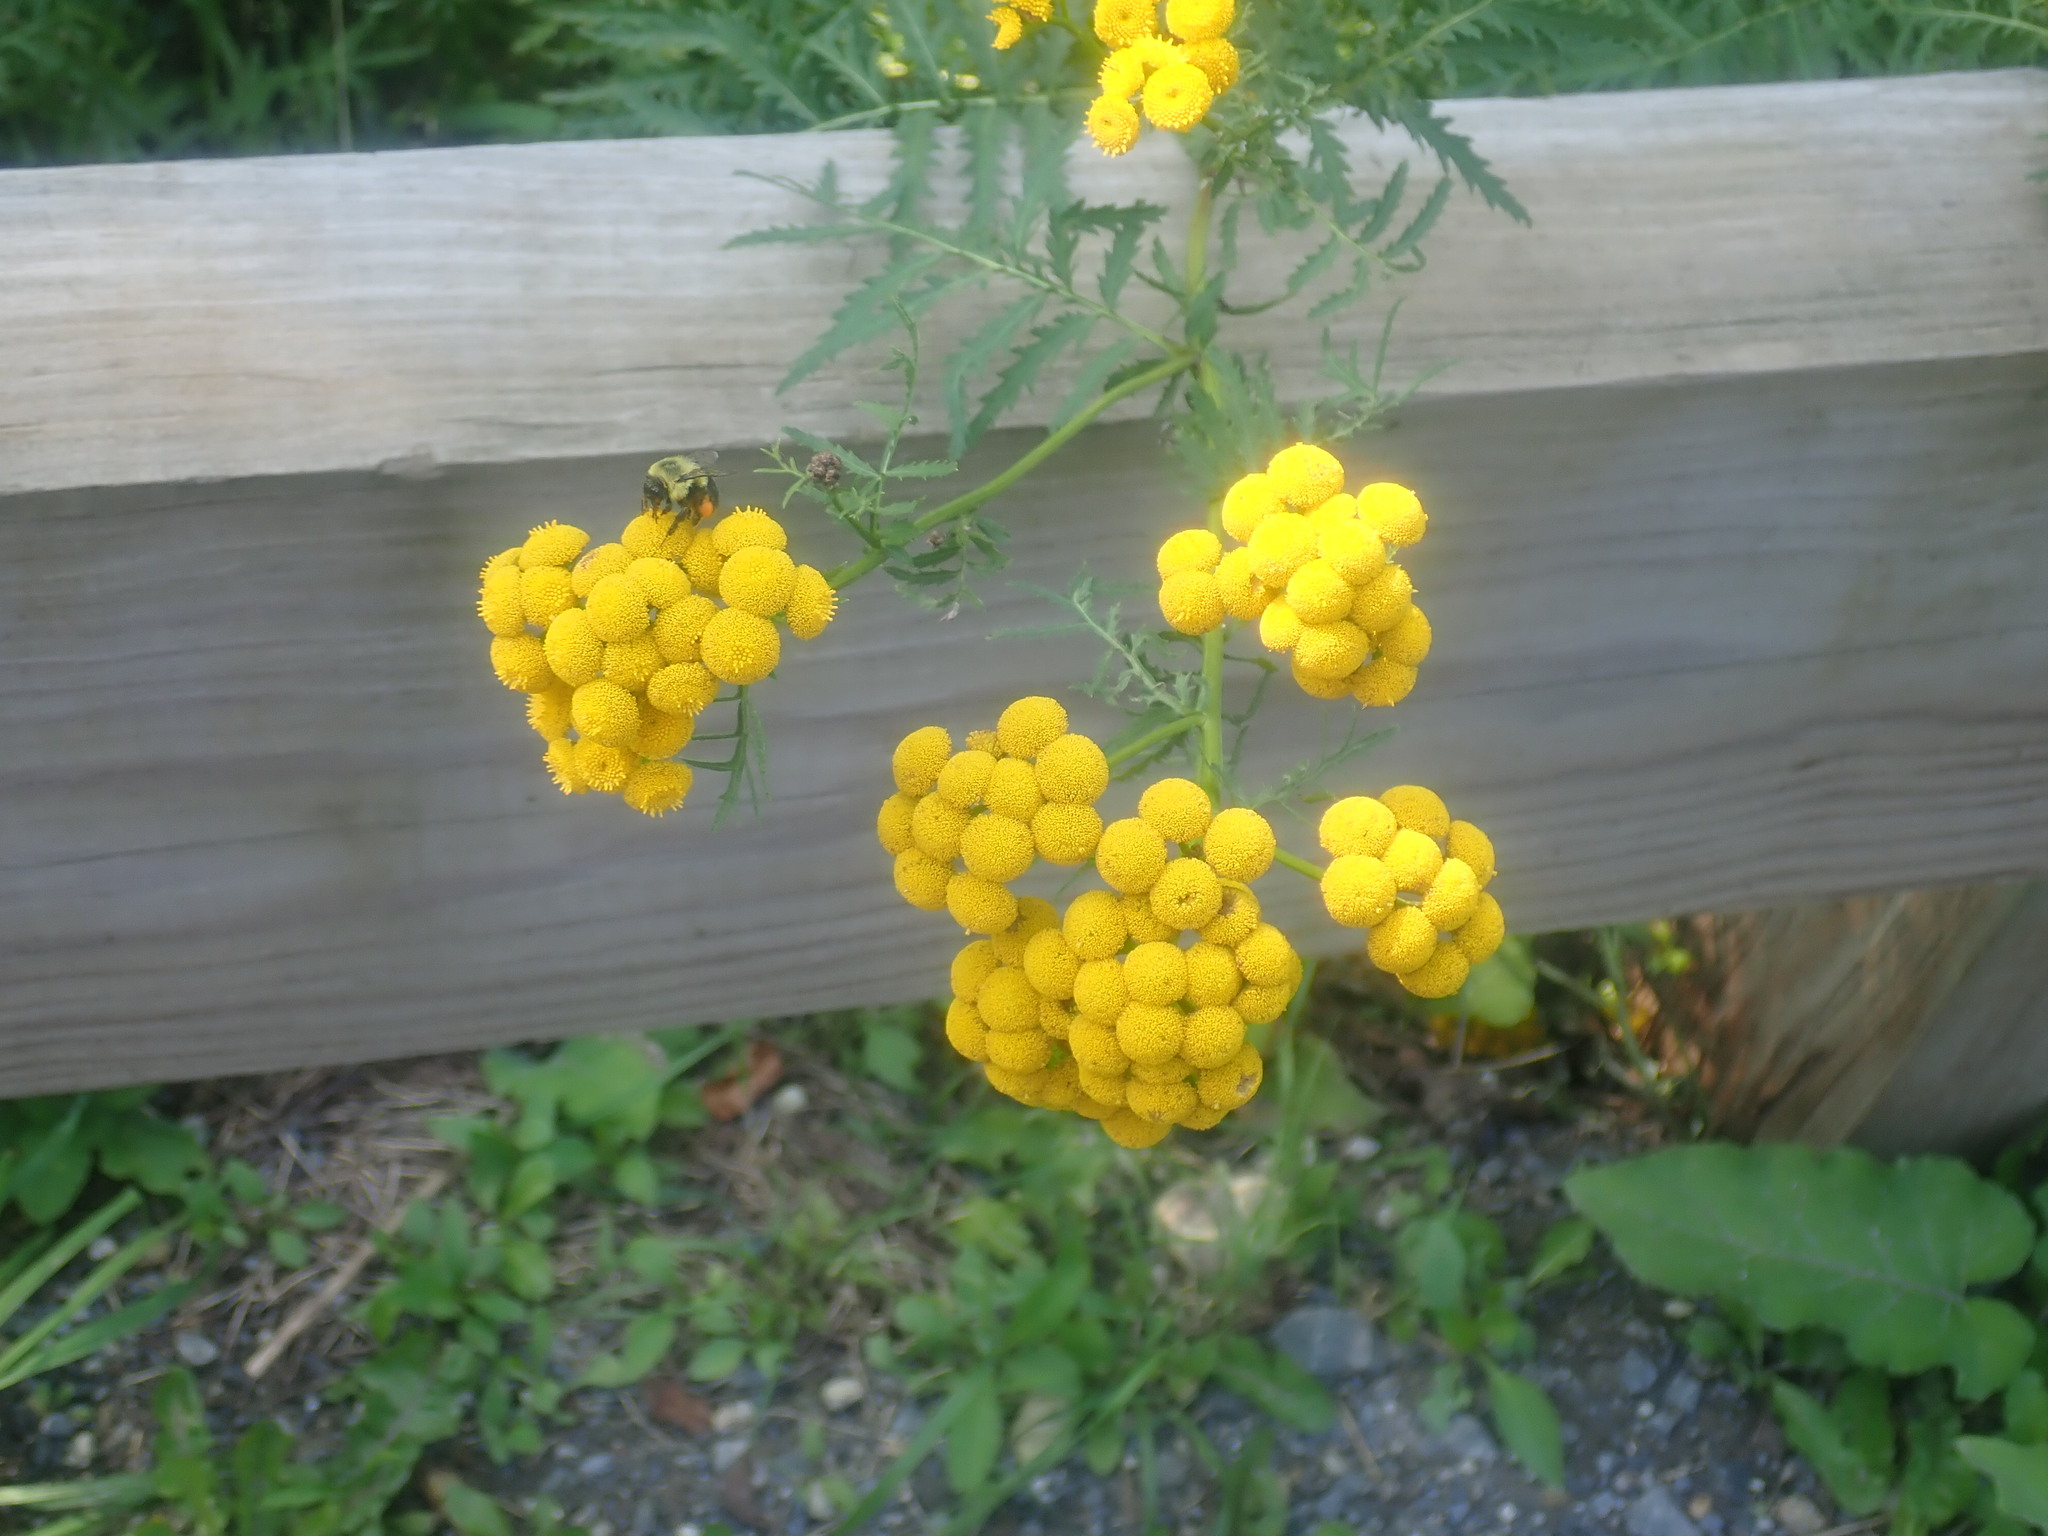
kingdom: Plantae
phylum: Tracheophyta
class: Magnoliopsida
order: Asterales
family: Asteraceae
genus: Tanacetum
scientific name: Tanacetum vulgare
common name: Common tansy
